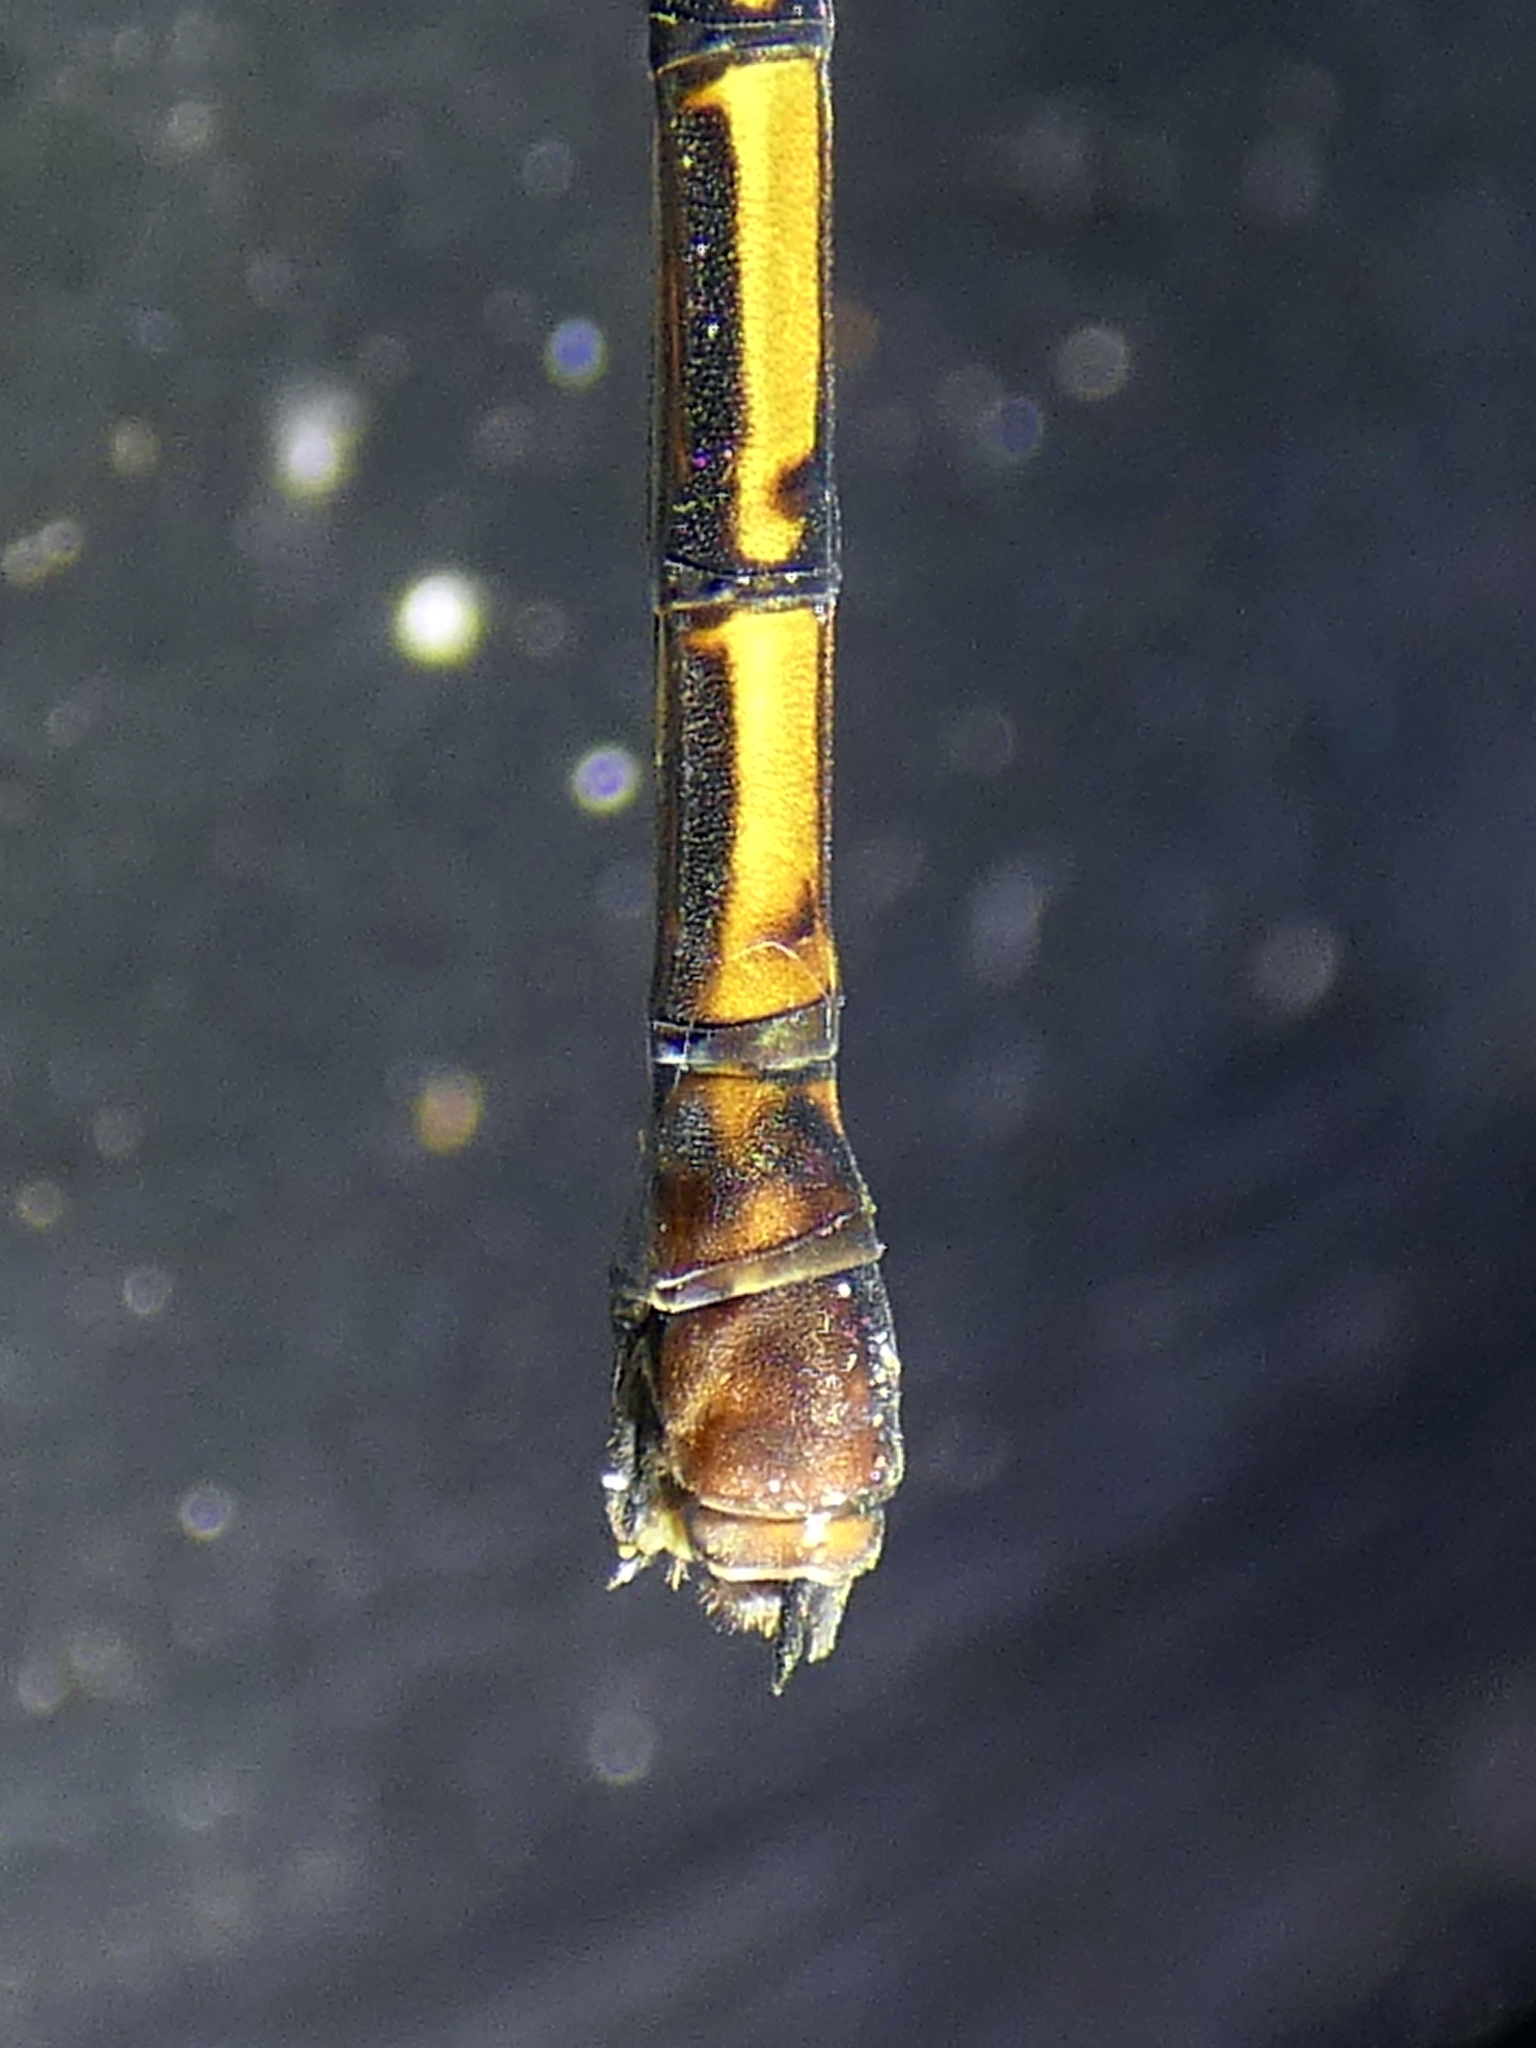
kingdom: Animalia
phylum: Arthropoda
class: Insecta
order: Odonata
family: Lestoideidae
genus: Diphlebia
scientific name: Diphlebia euphoeoides
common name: Tropical rockmaster
